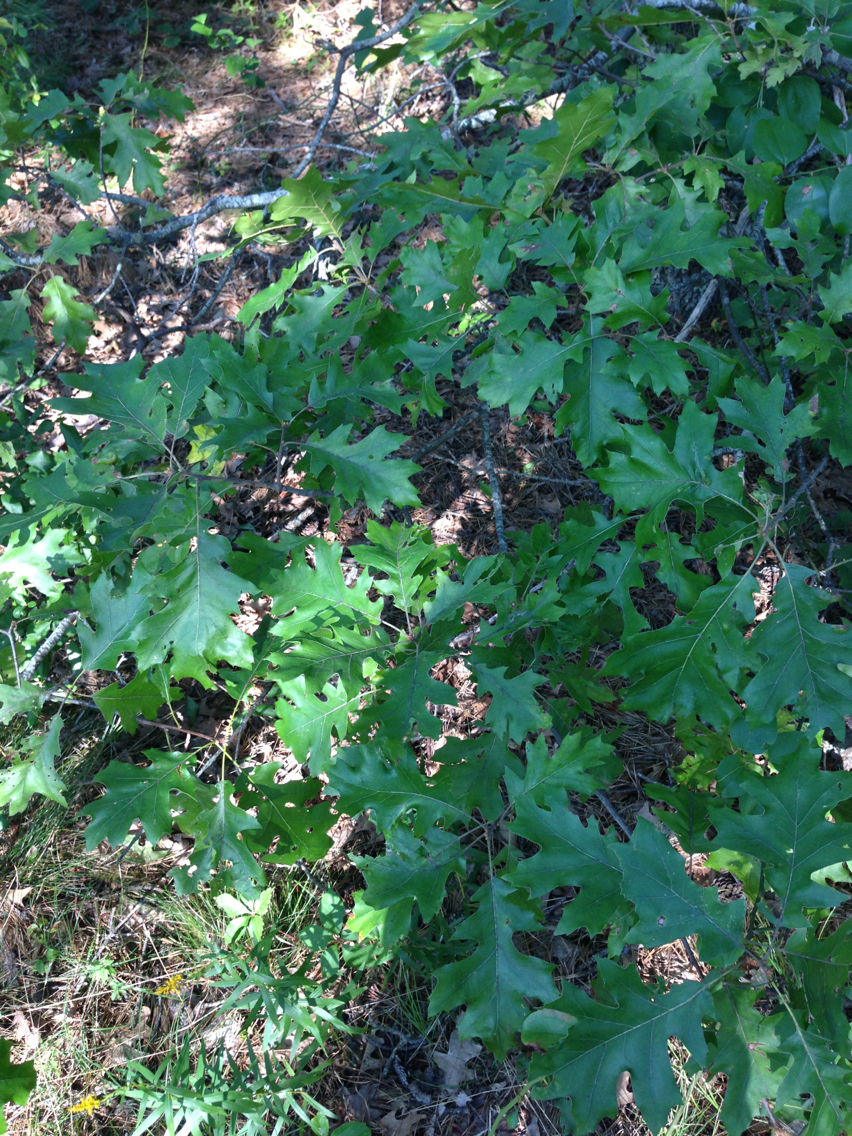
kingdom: Plantae
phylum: Tracheophyta
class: Magnoliopsida
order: Fagales
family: Fagaceae
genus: Quercus
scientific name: Quercus velutina
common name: Black oak
